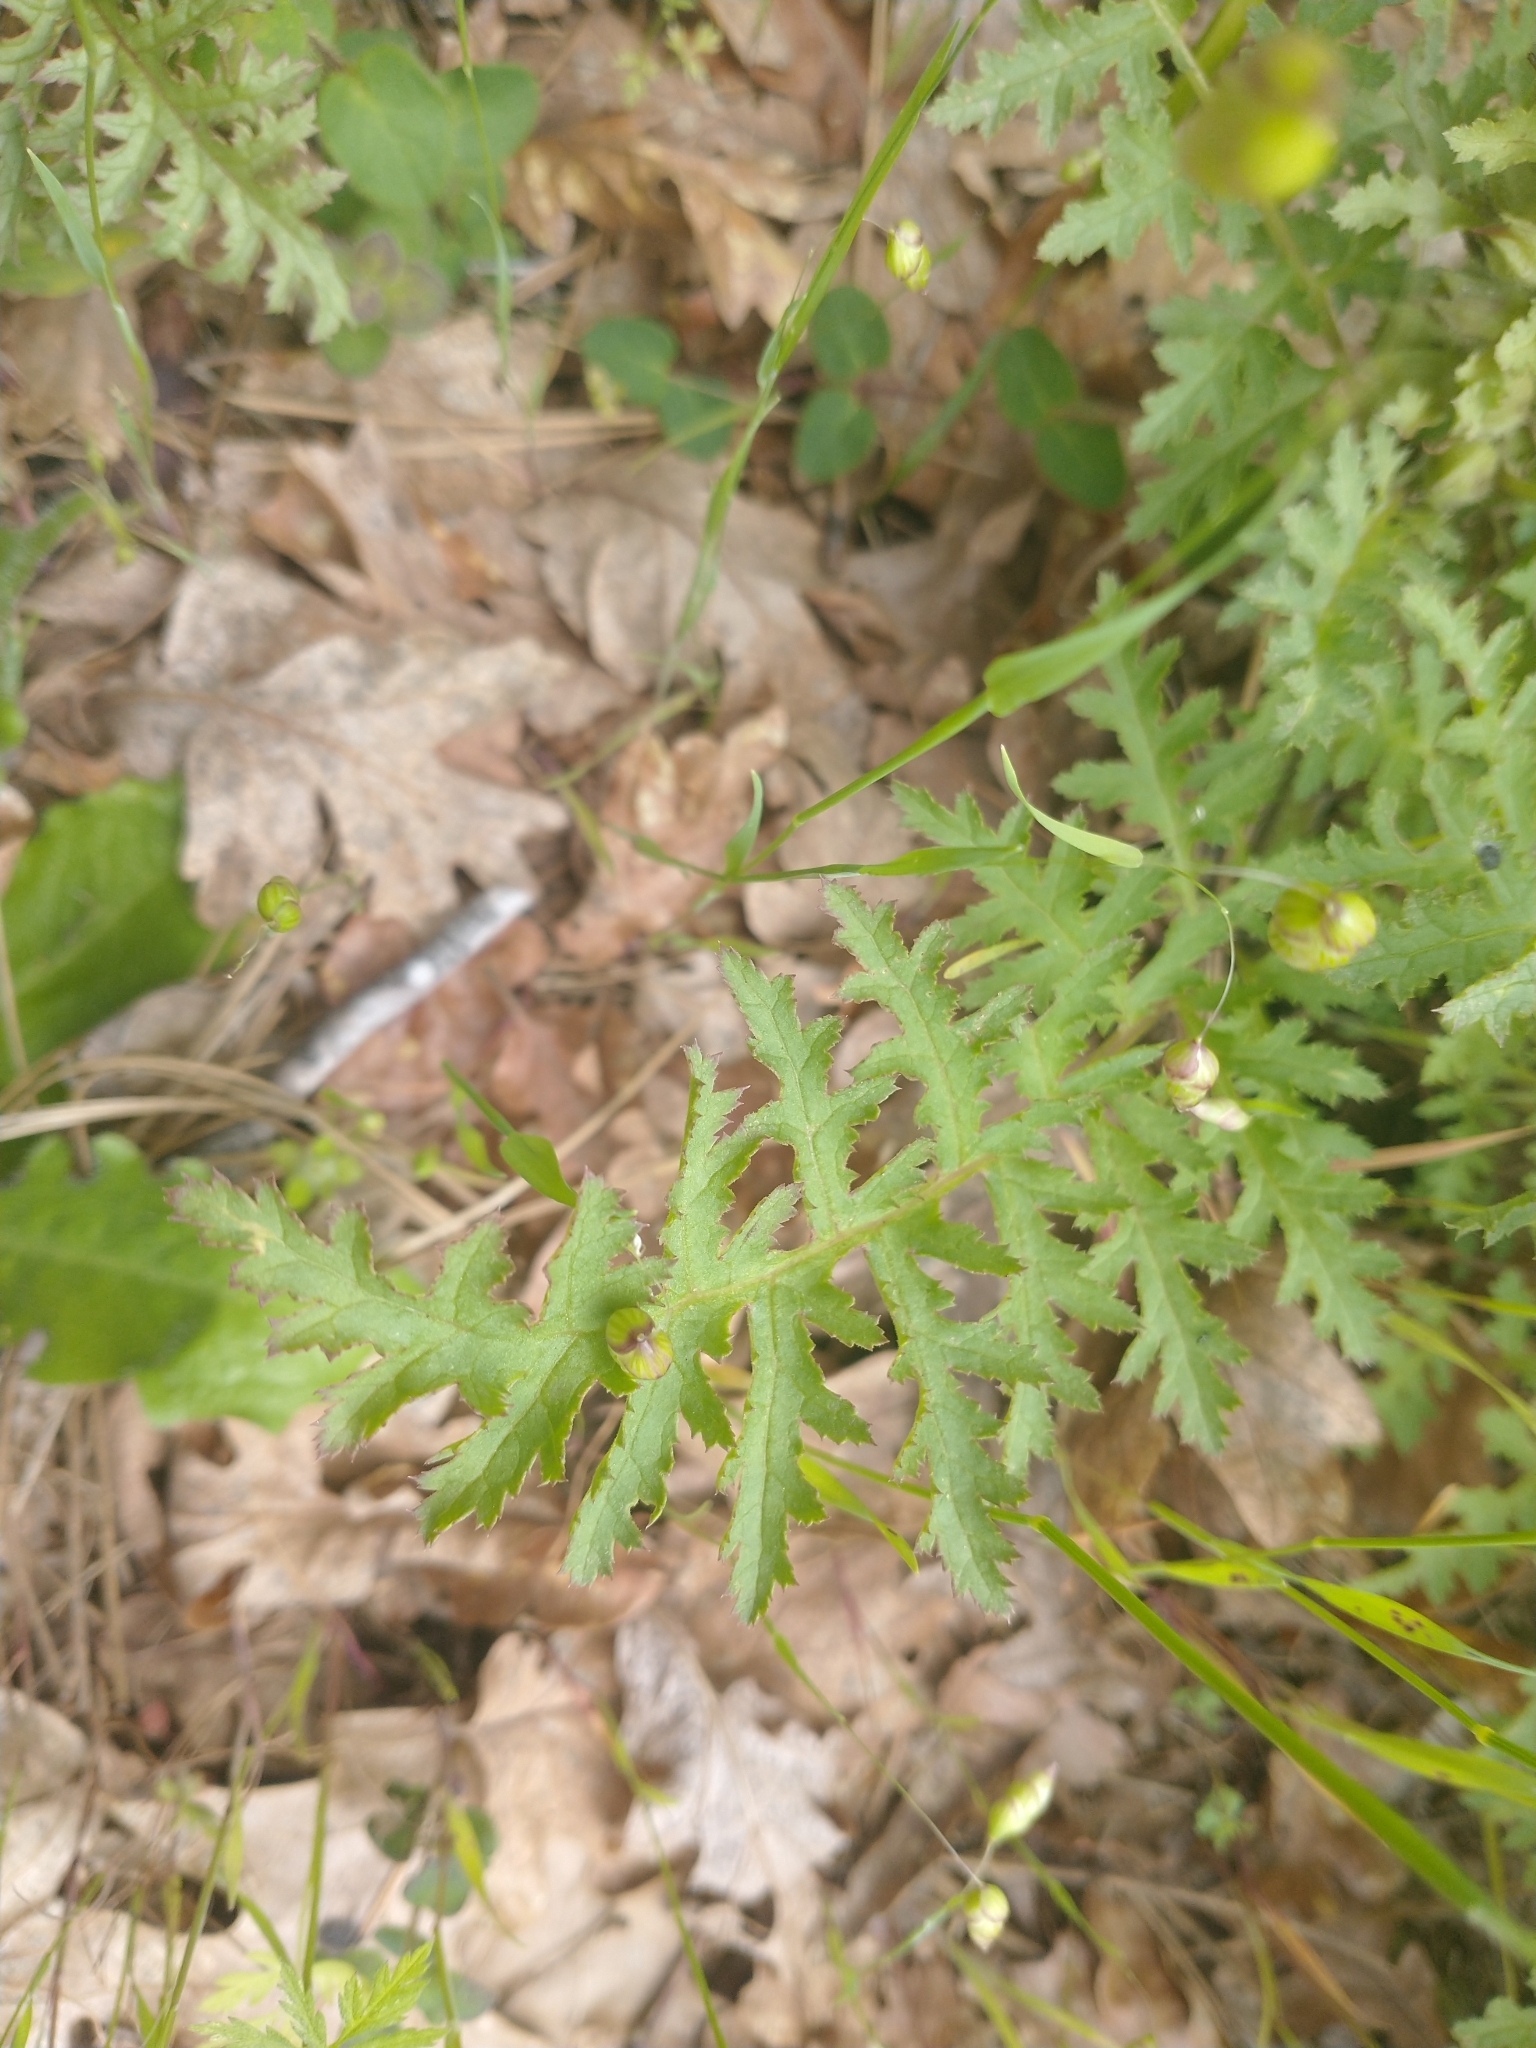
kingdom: Plantae
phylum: Tracheophyta
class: Magnoliopsida
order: Lamiales
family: Orobanchaceae
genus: Pedicularis
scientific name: Pedicularis densiflora
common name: Indian warrior
